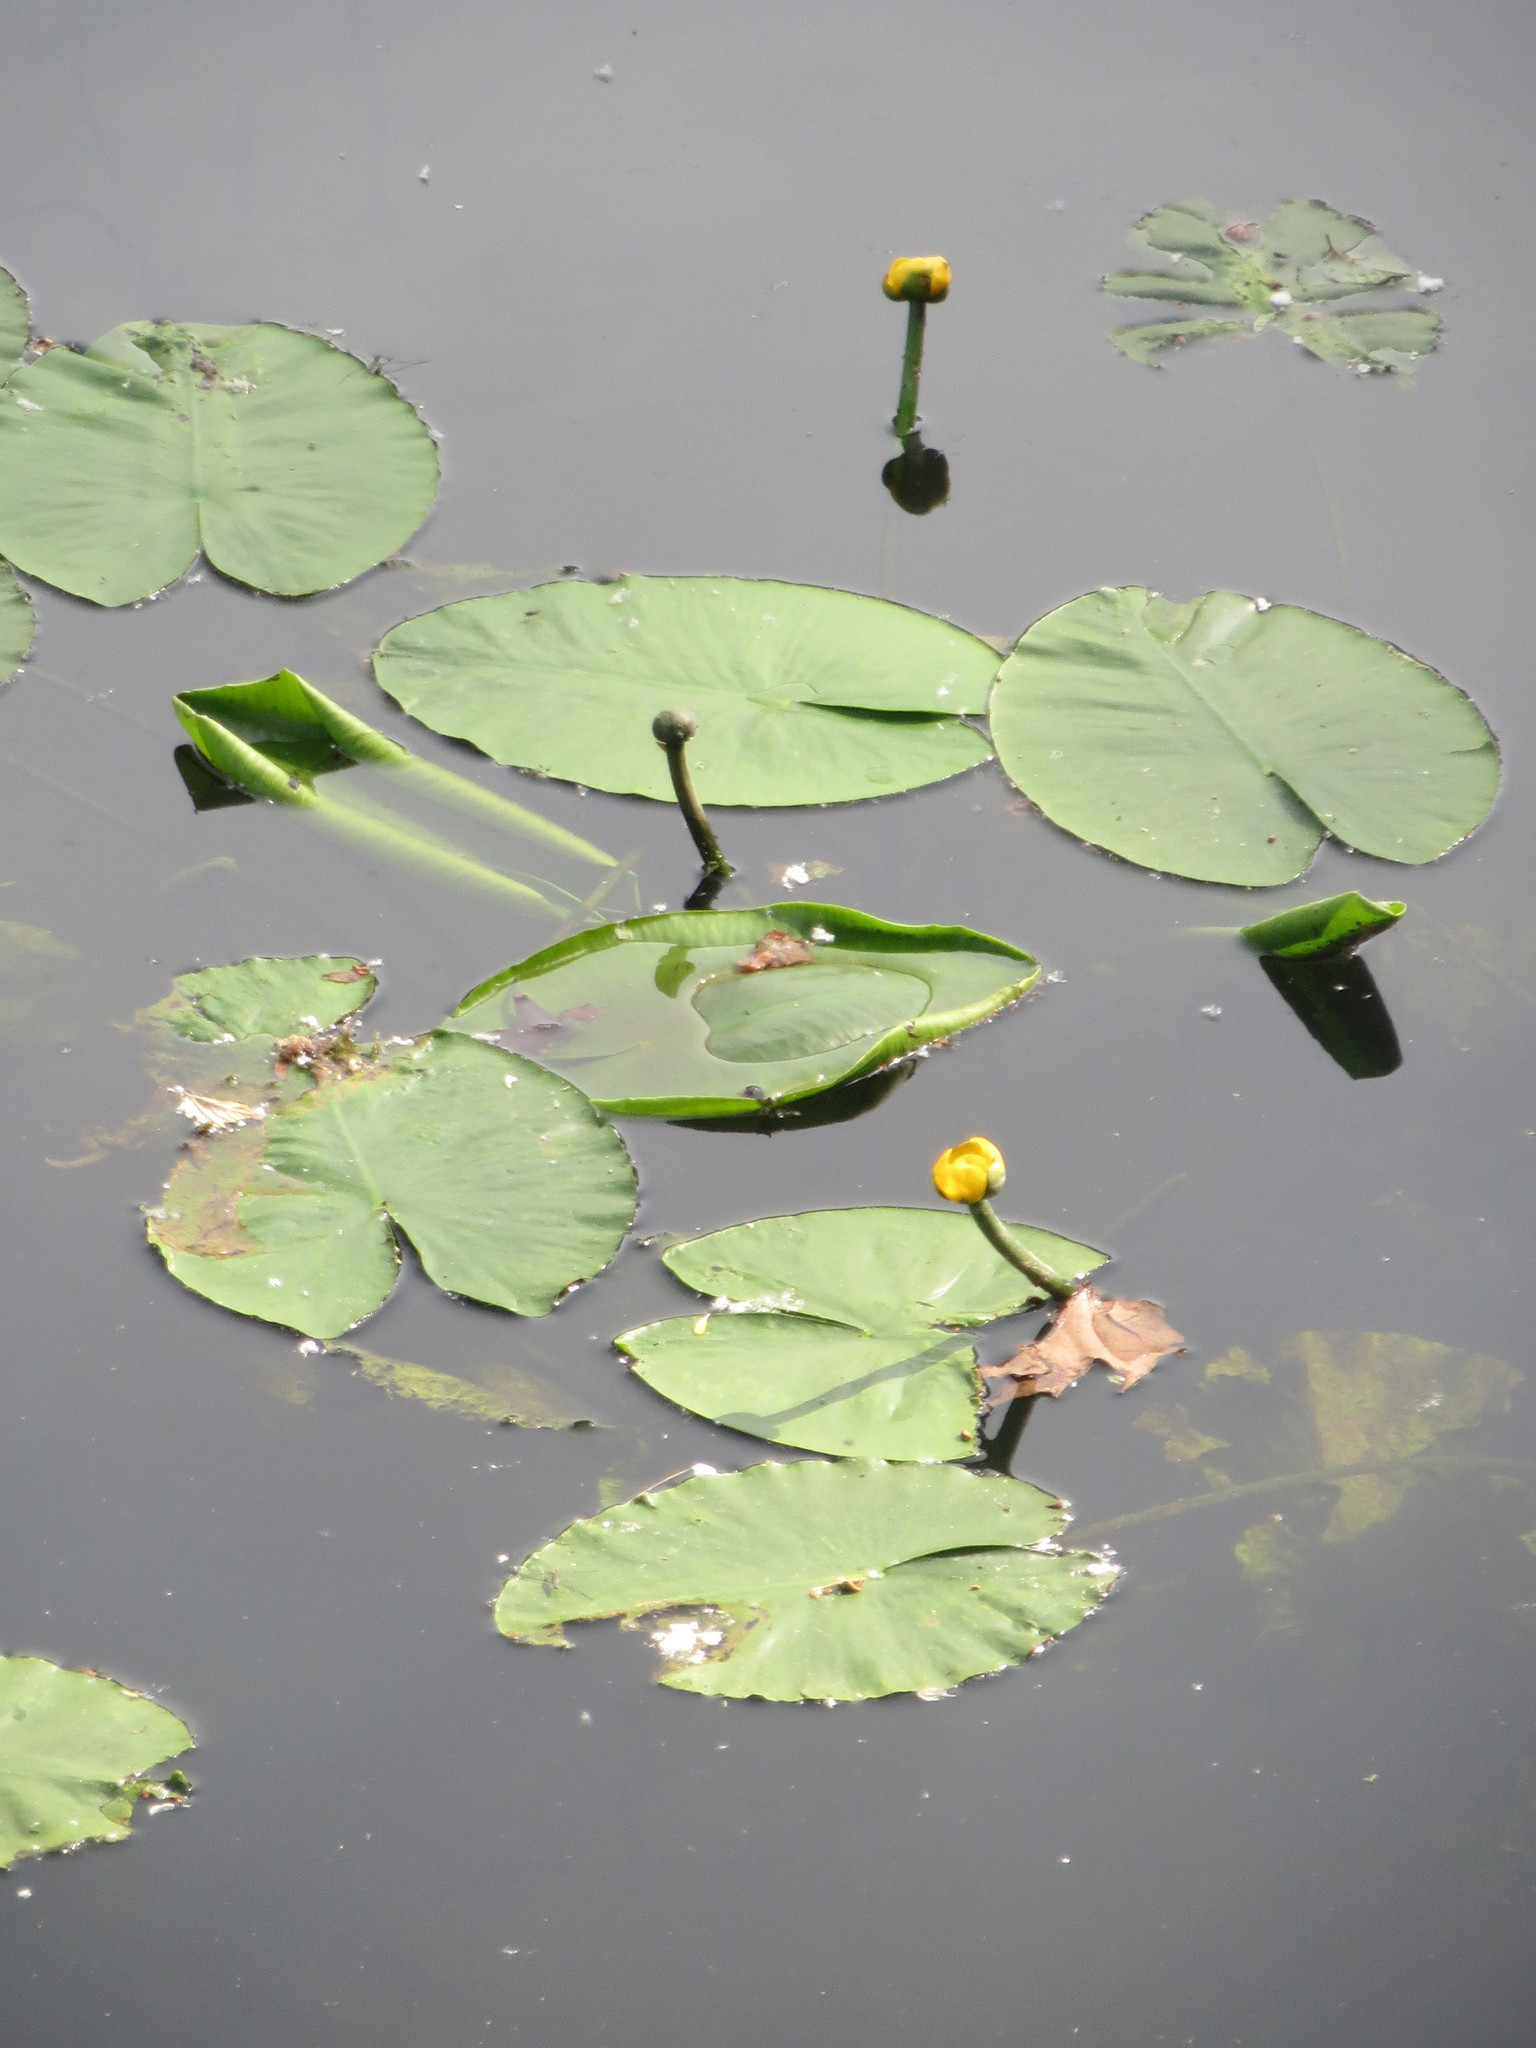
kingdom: Plantae
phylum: Tracheophyta
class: Magnoliopsida
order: Nymphaeales
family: Nymphaeaceae
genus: Nuphar
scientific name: Nuphar lutea
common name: Yellow water-lily
